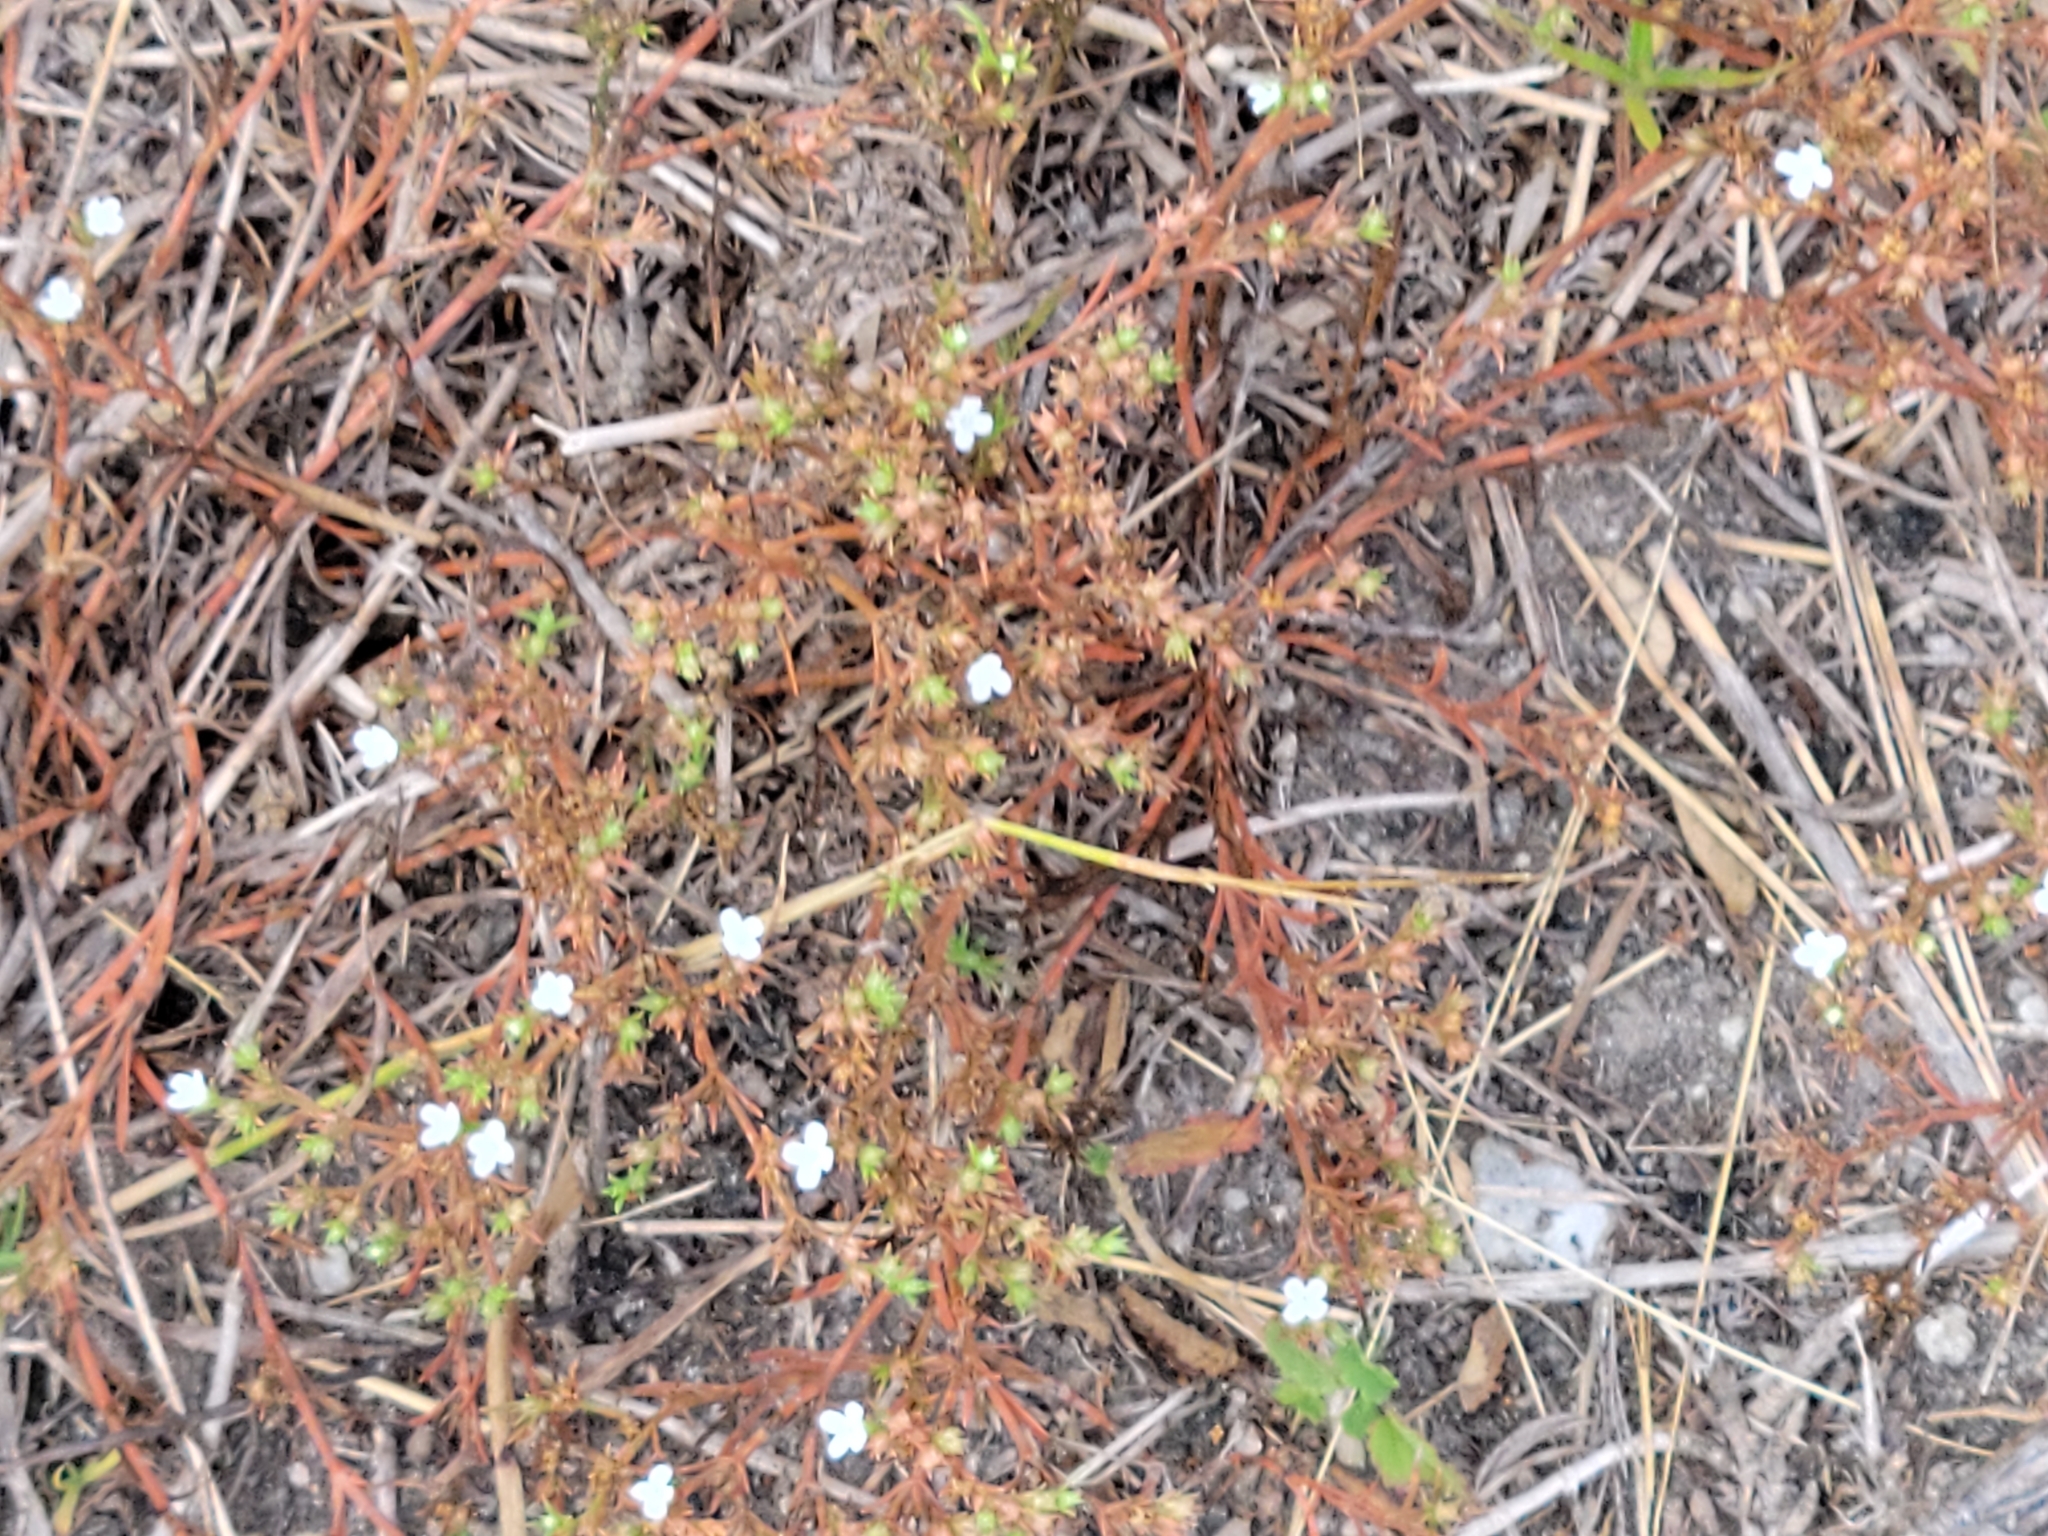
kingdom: Plantae
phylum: Tracheophyta
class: Magnoliopsida
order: Lamiales
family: Tetrachondraceae
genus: Polypremum
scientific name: Polypremum procumbens
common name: Juniper-leaf
